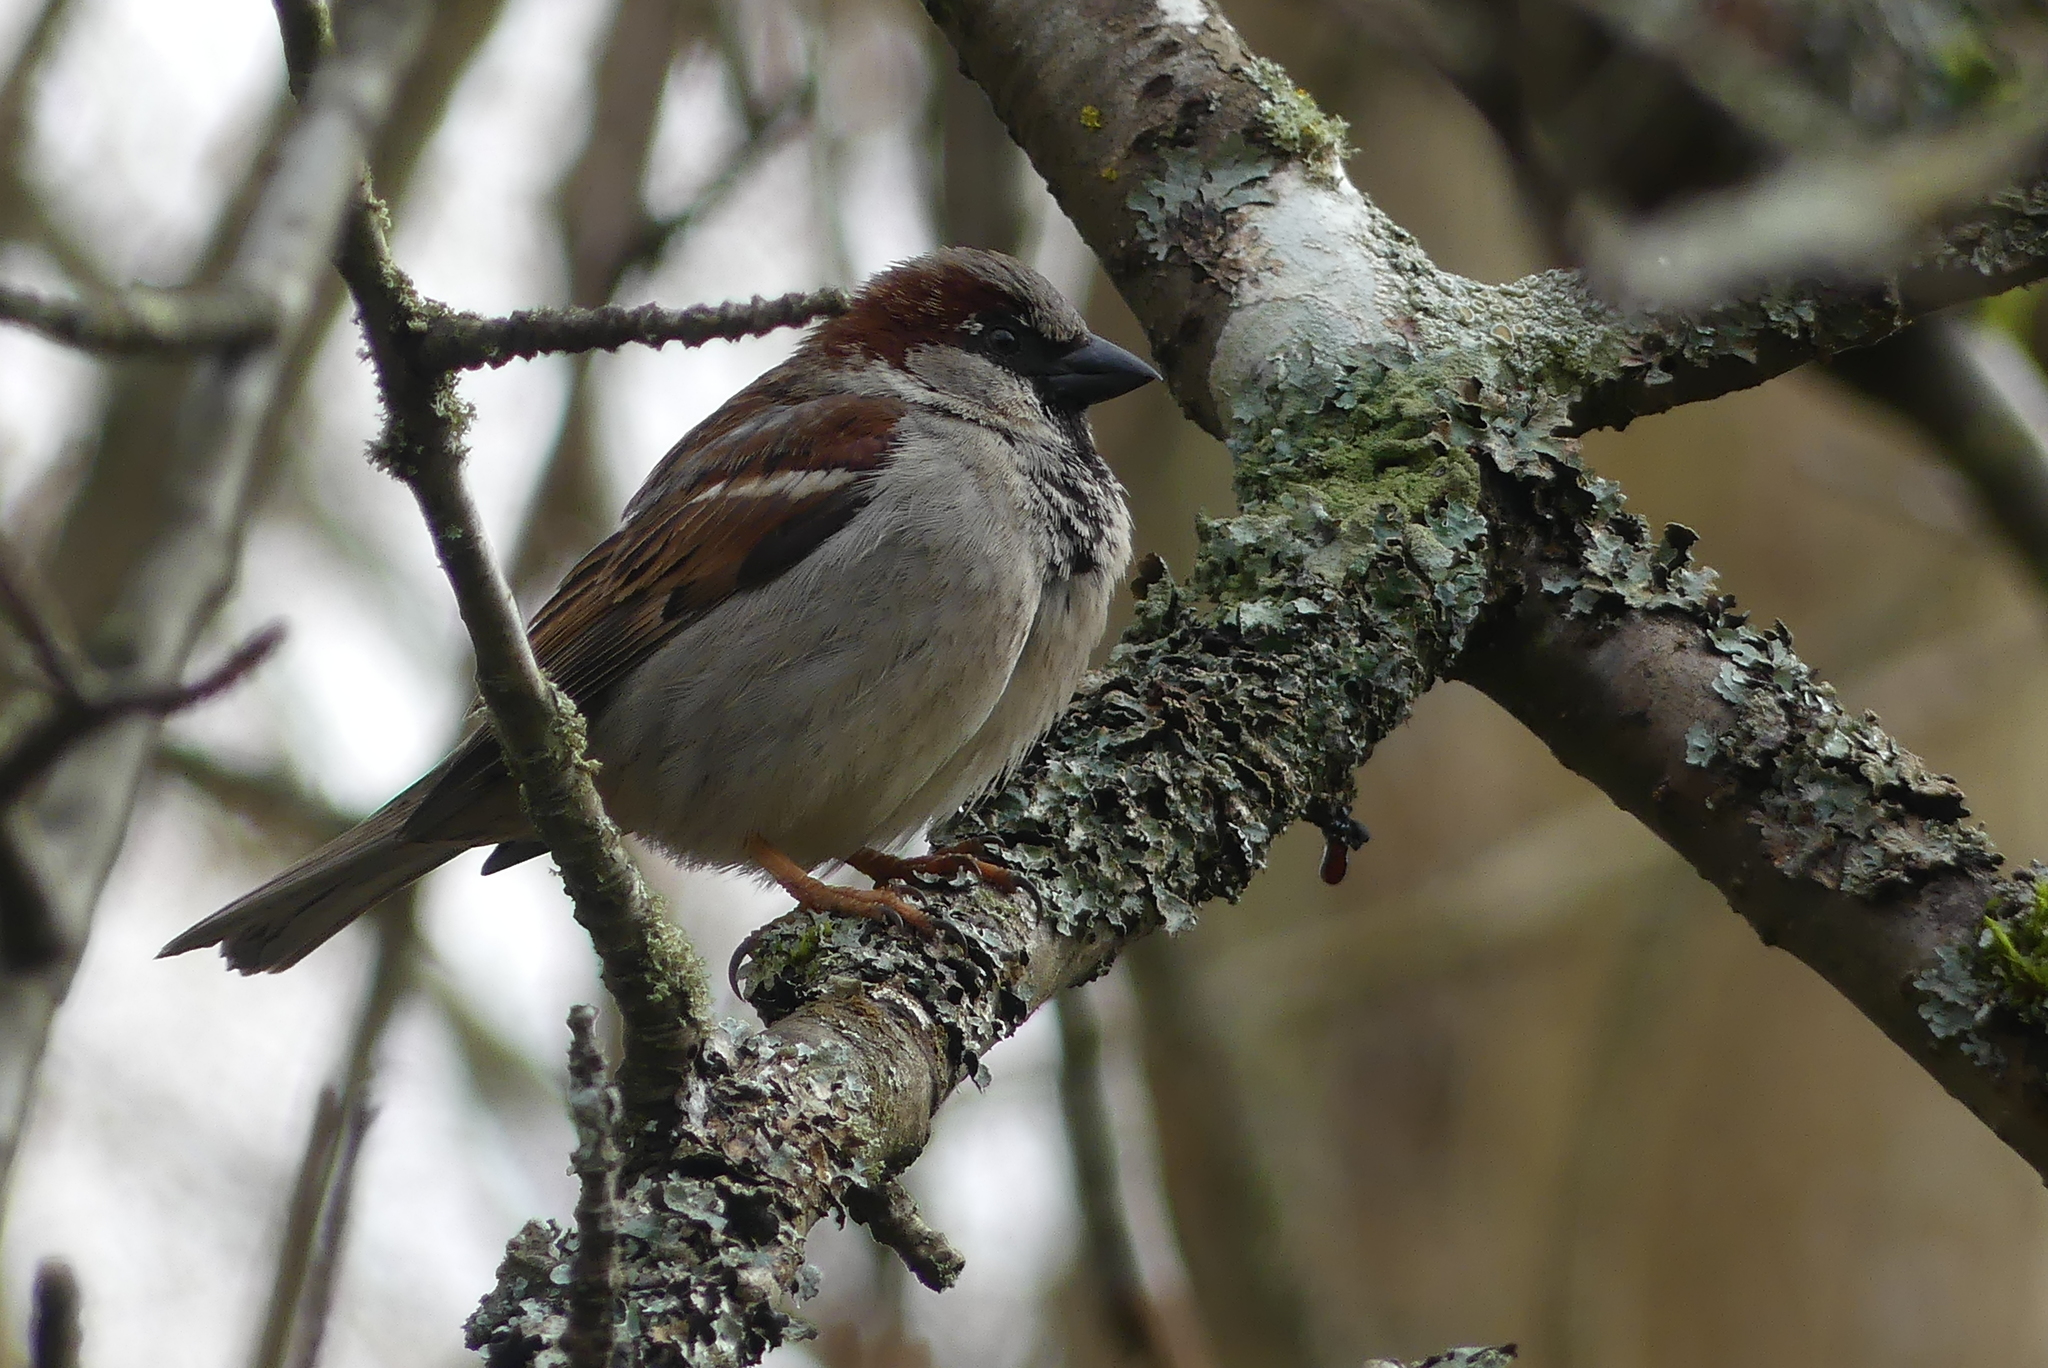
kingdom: Animalia
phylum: Chordata
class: Aves
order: Passeriformes
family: Passeridae
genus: Passer
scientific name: Passer domesticus
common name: House sparrow
